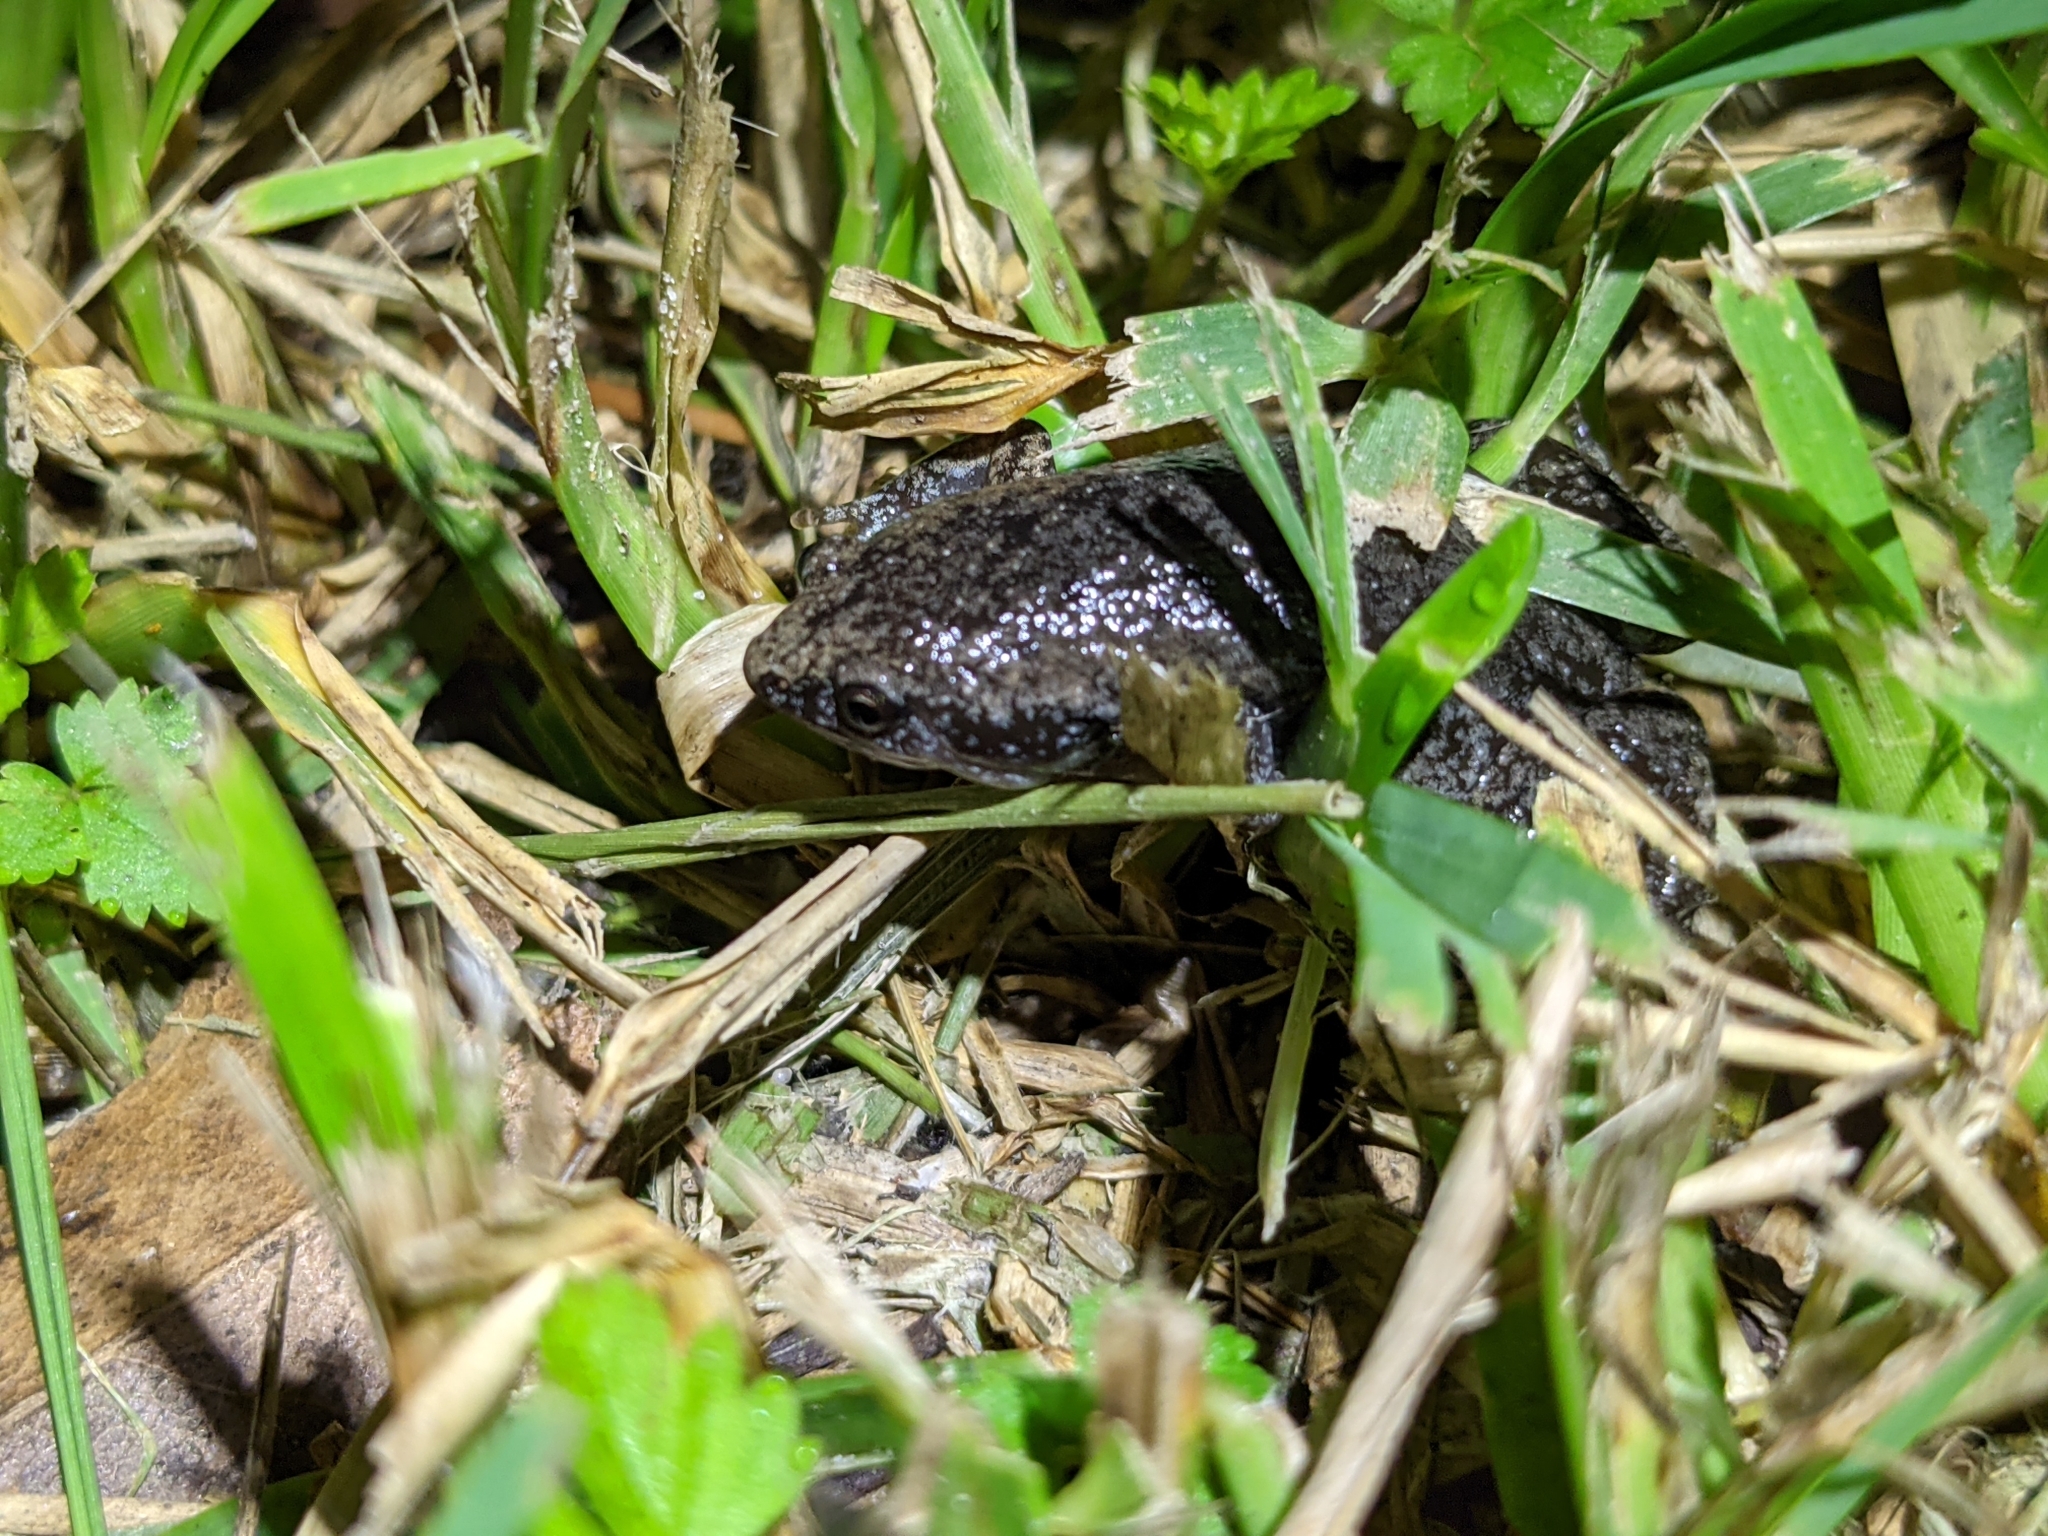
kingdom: Animalia
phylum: Chordata
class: Amphibia
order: Anura
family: Microhylidae
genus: Gastrophryne
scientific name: Gastrophryne carolinensis
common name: Eastern narrowmouth toad
